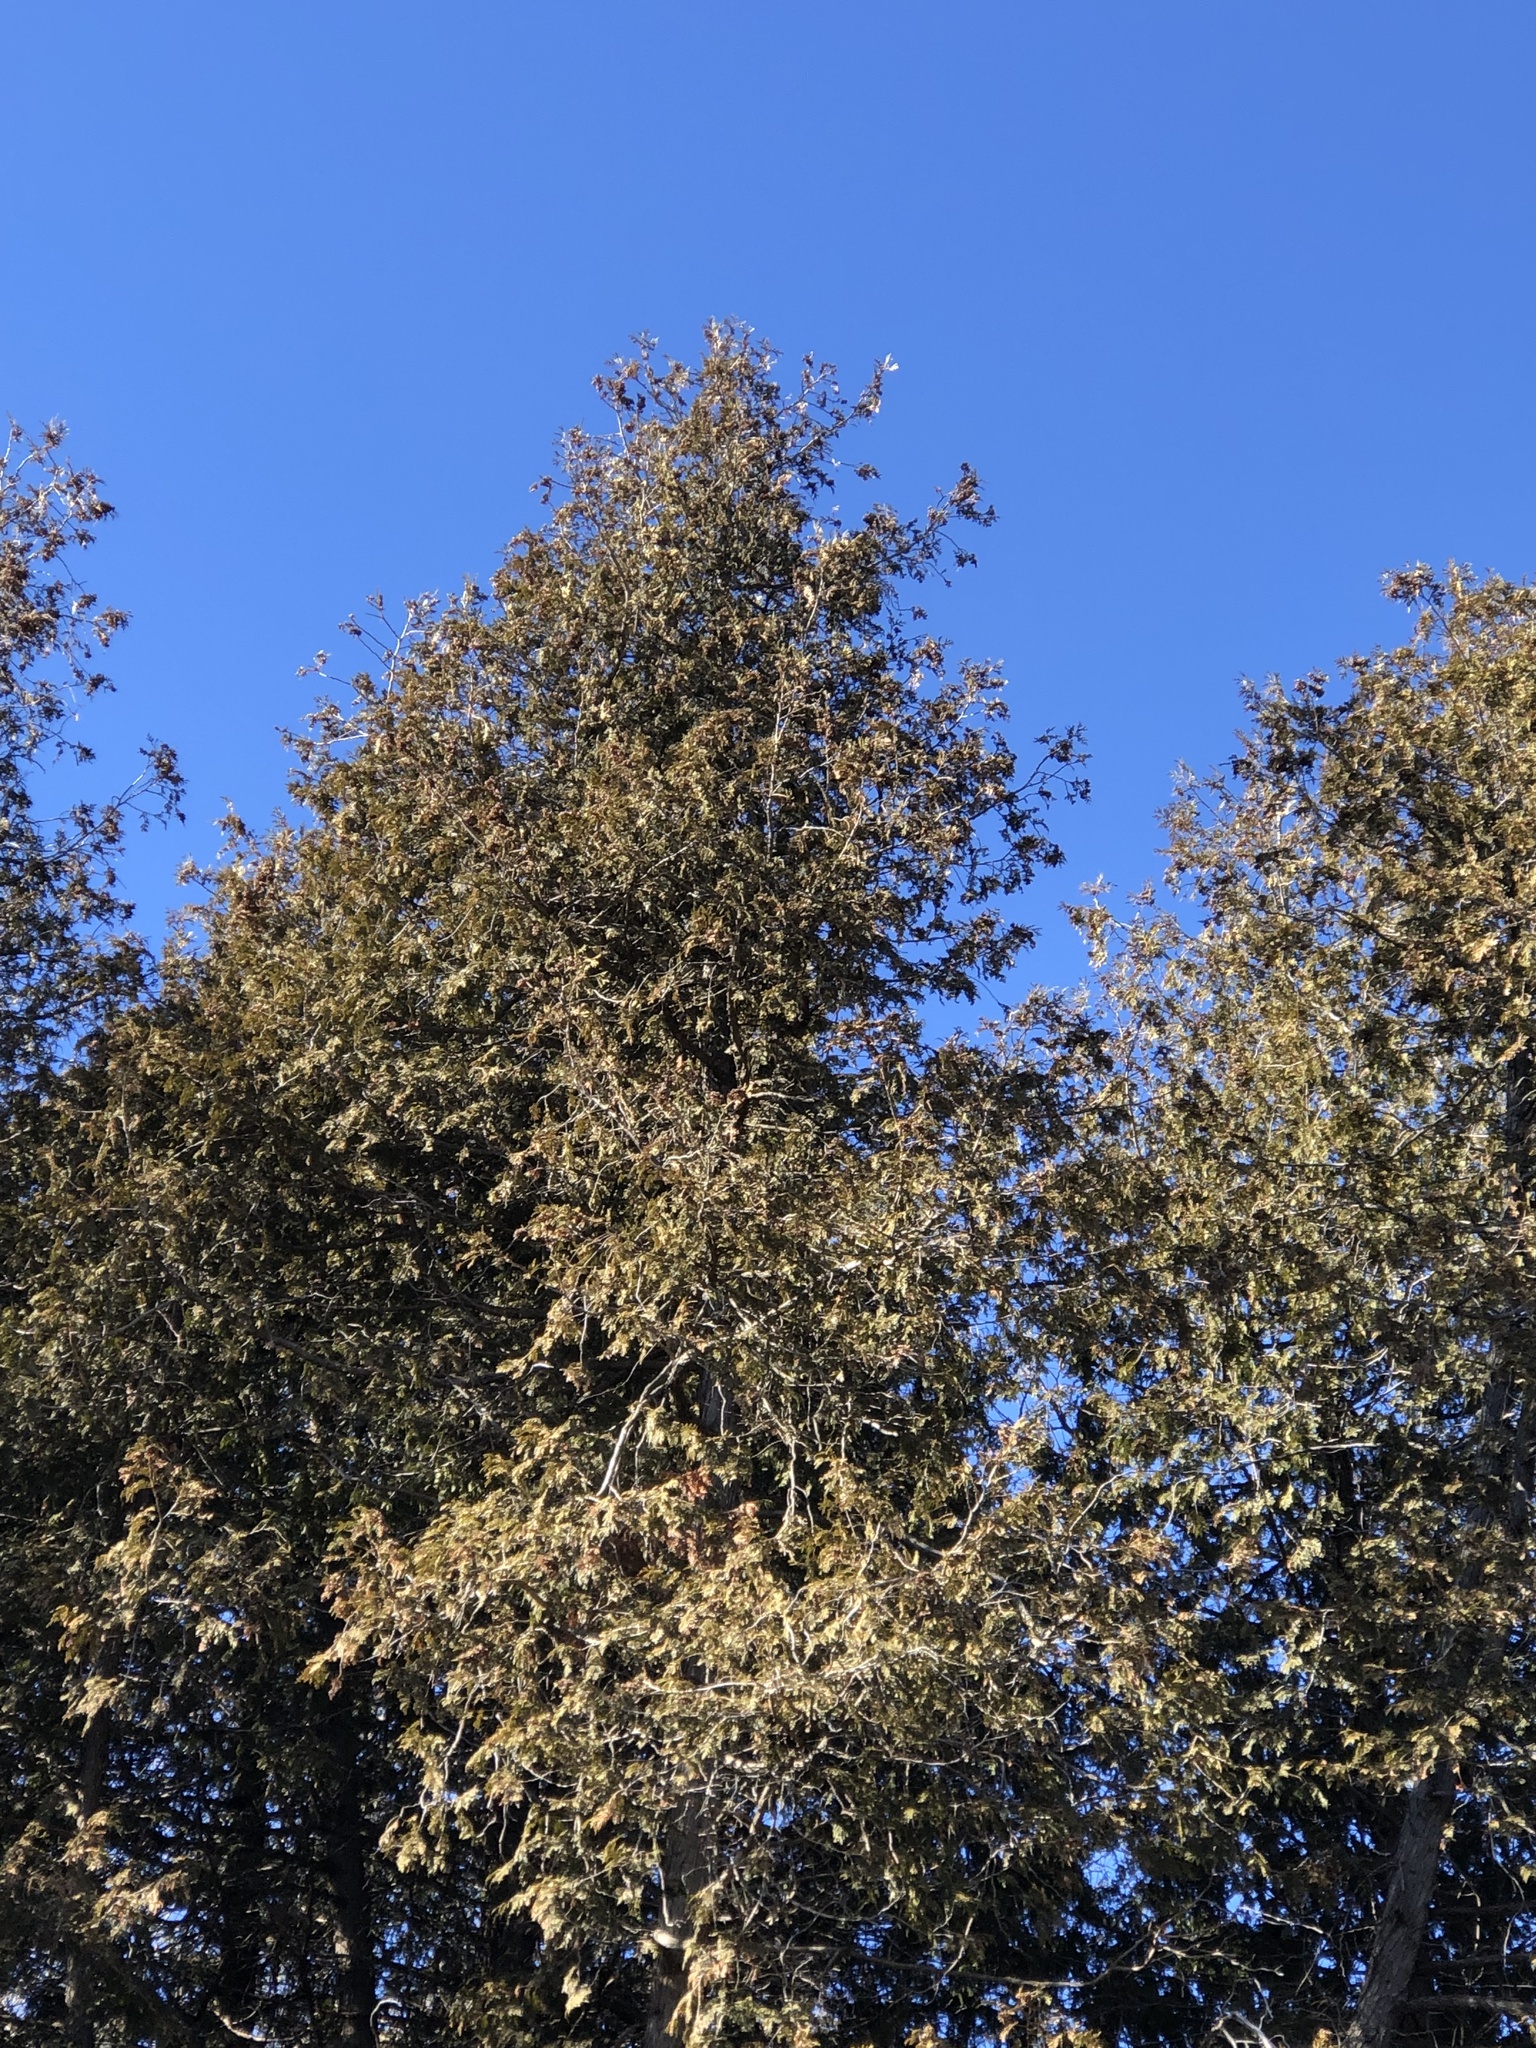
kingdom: Plantae
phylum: Tracheophyta
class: Pinopsida
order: Pinales
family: Cupressaceae
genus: Thuja
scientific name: Thuja occidentalis
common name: Northern white-cedar
